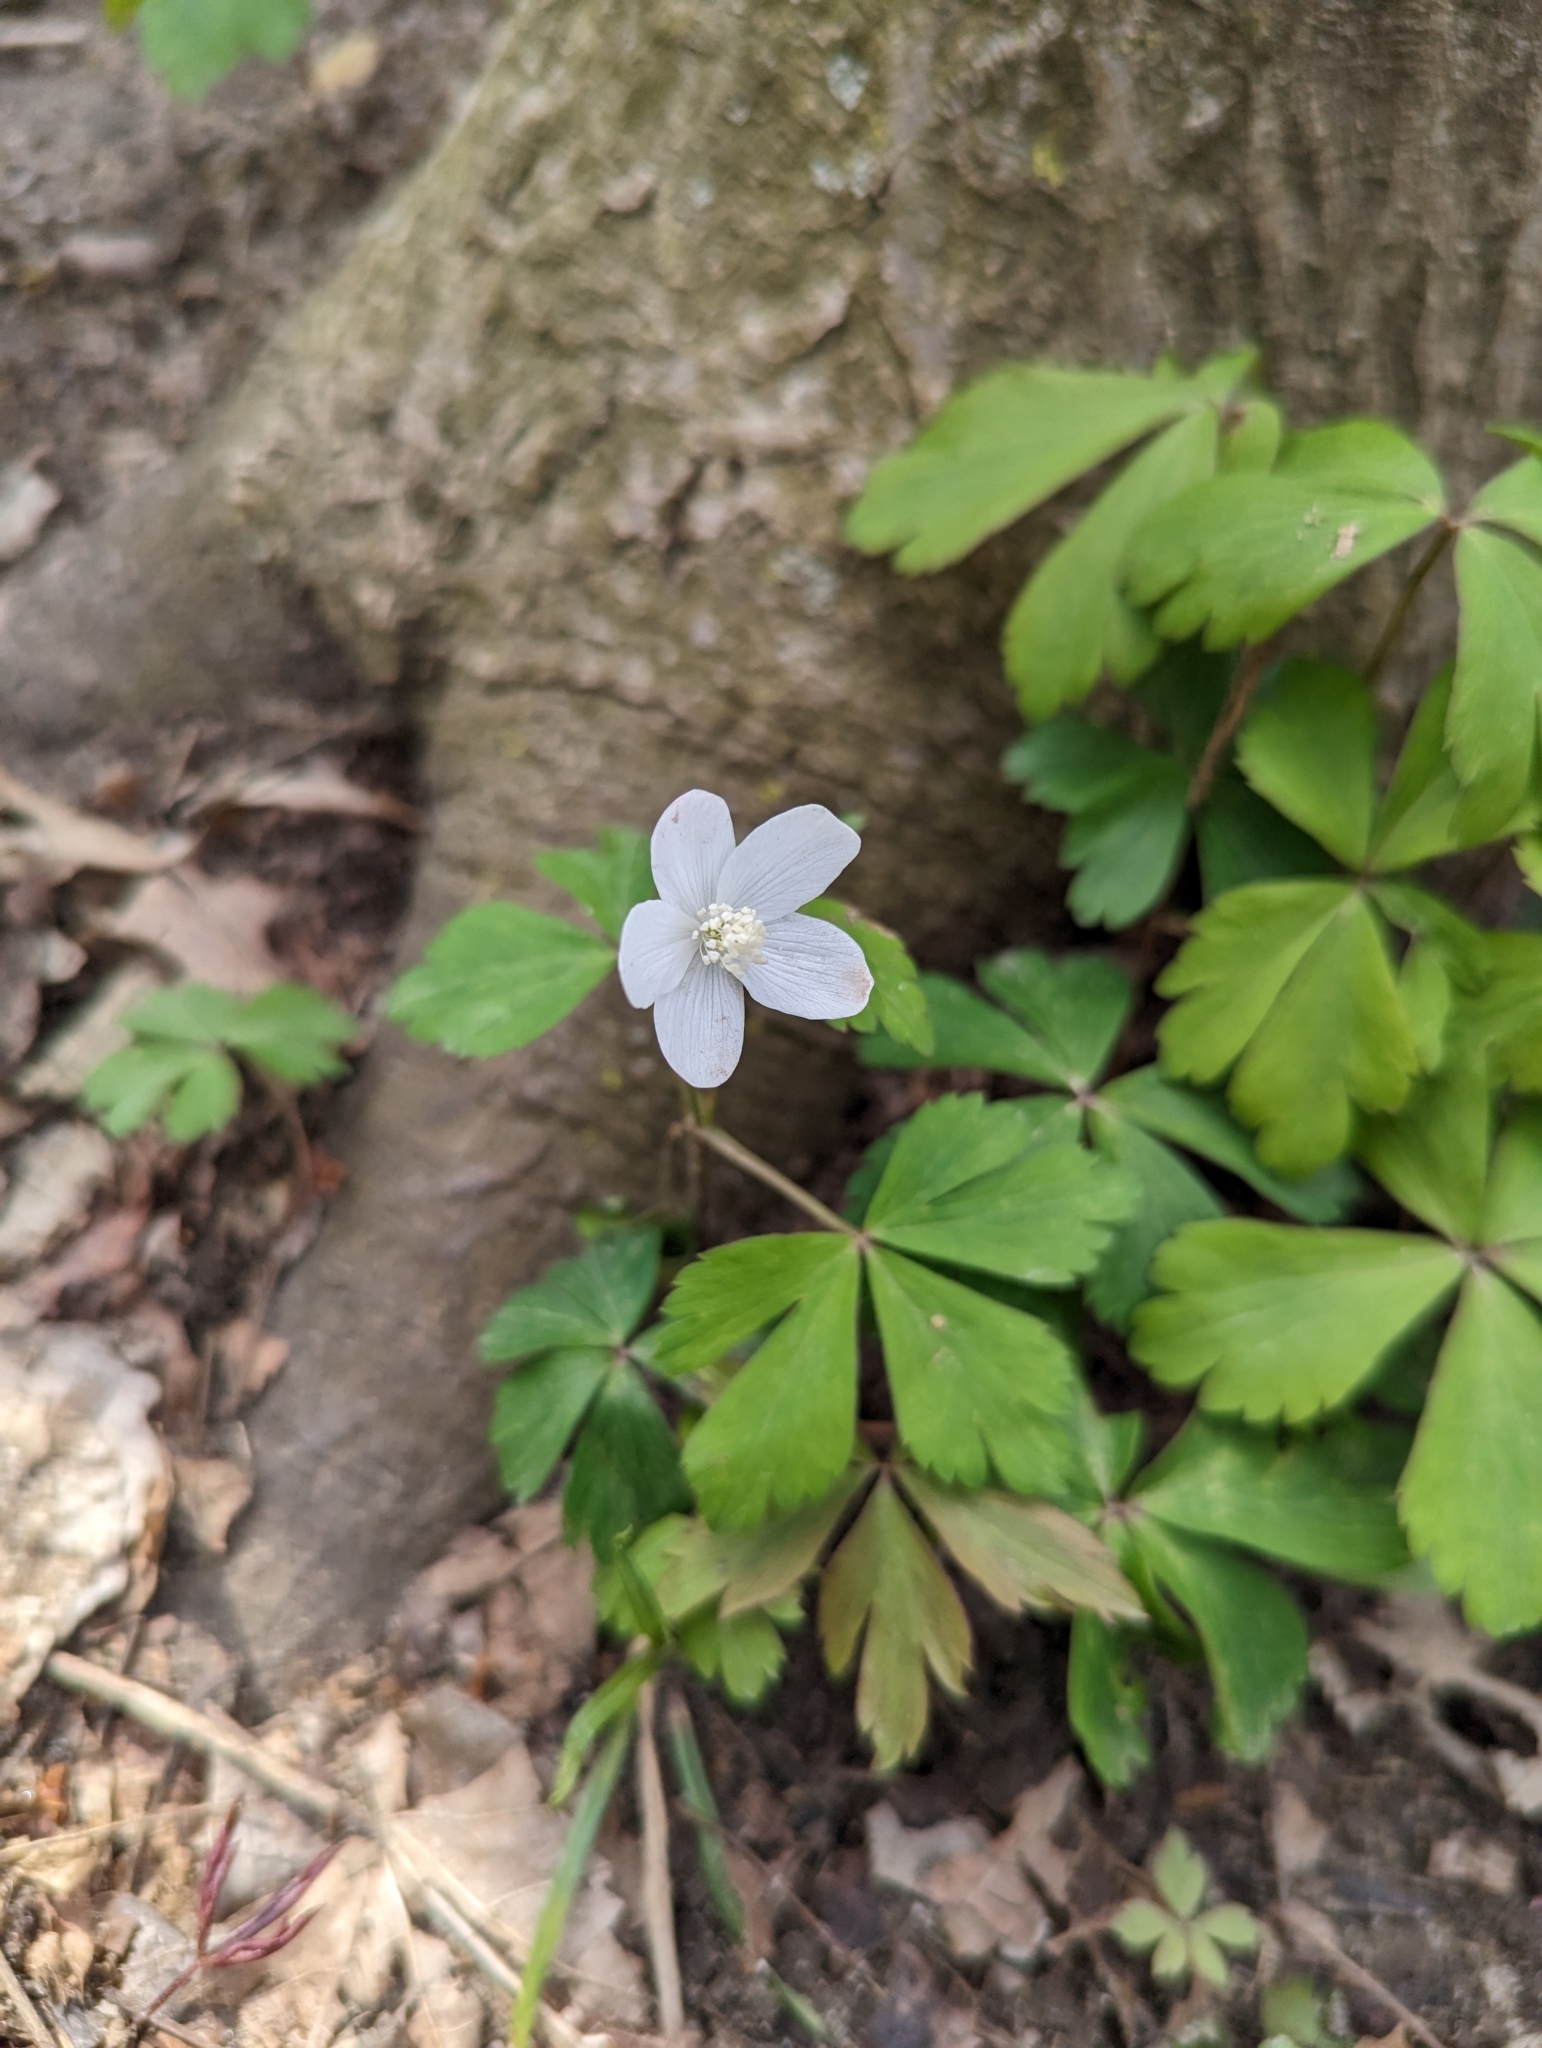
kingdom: Plantae
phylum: Tracheophyta
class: Magnoliopsida
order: Ranunculales
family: Ranunculaceae
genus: Anemone
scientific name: Anemone quinquefolia
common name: Wood anemone
